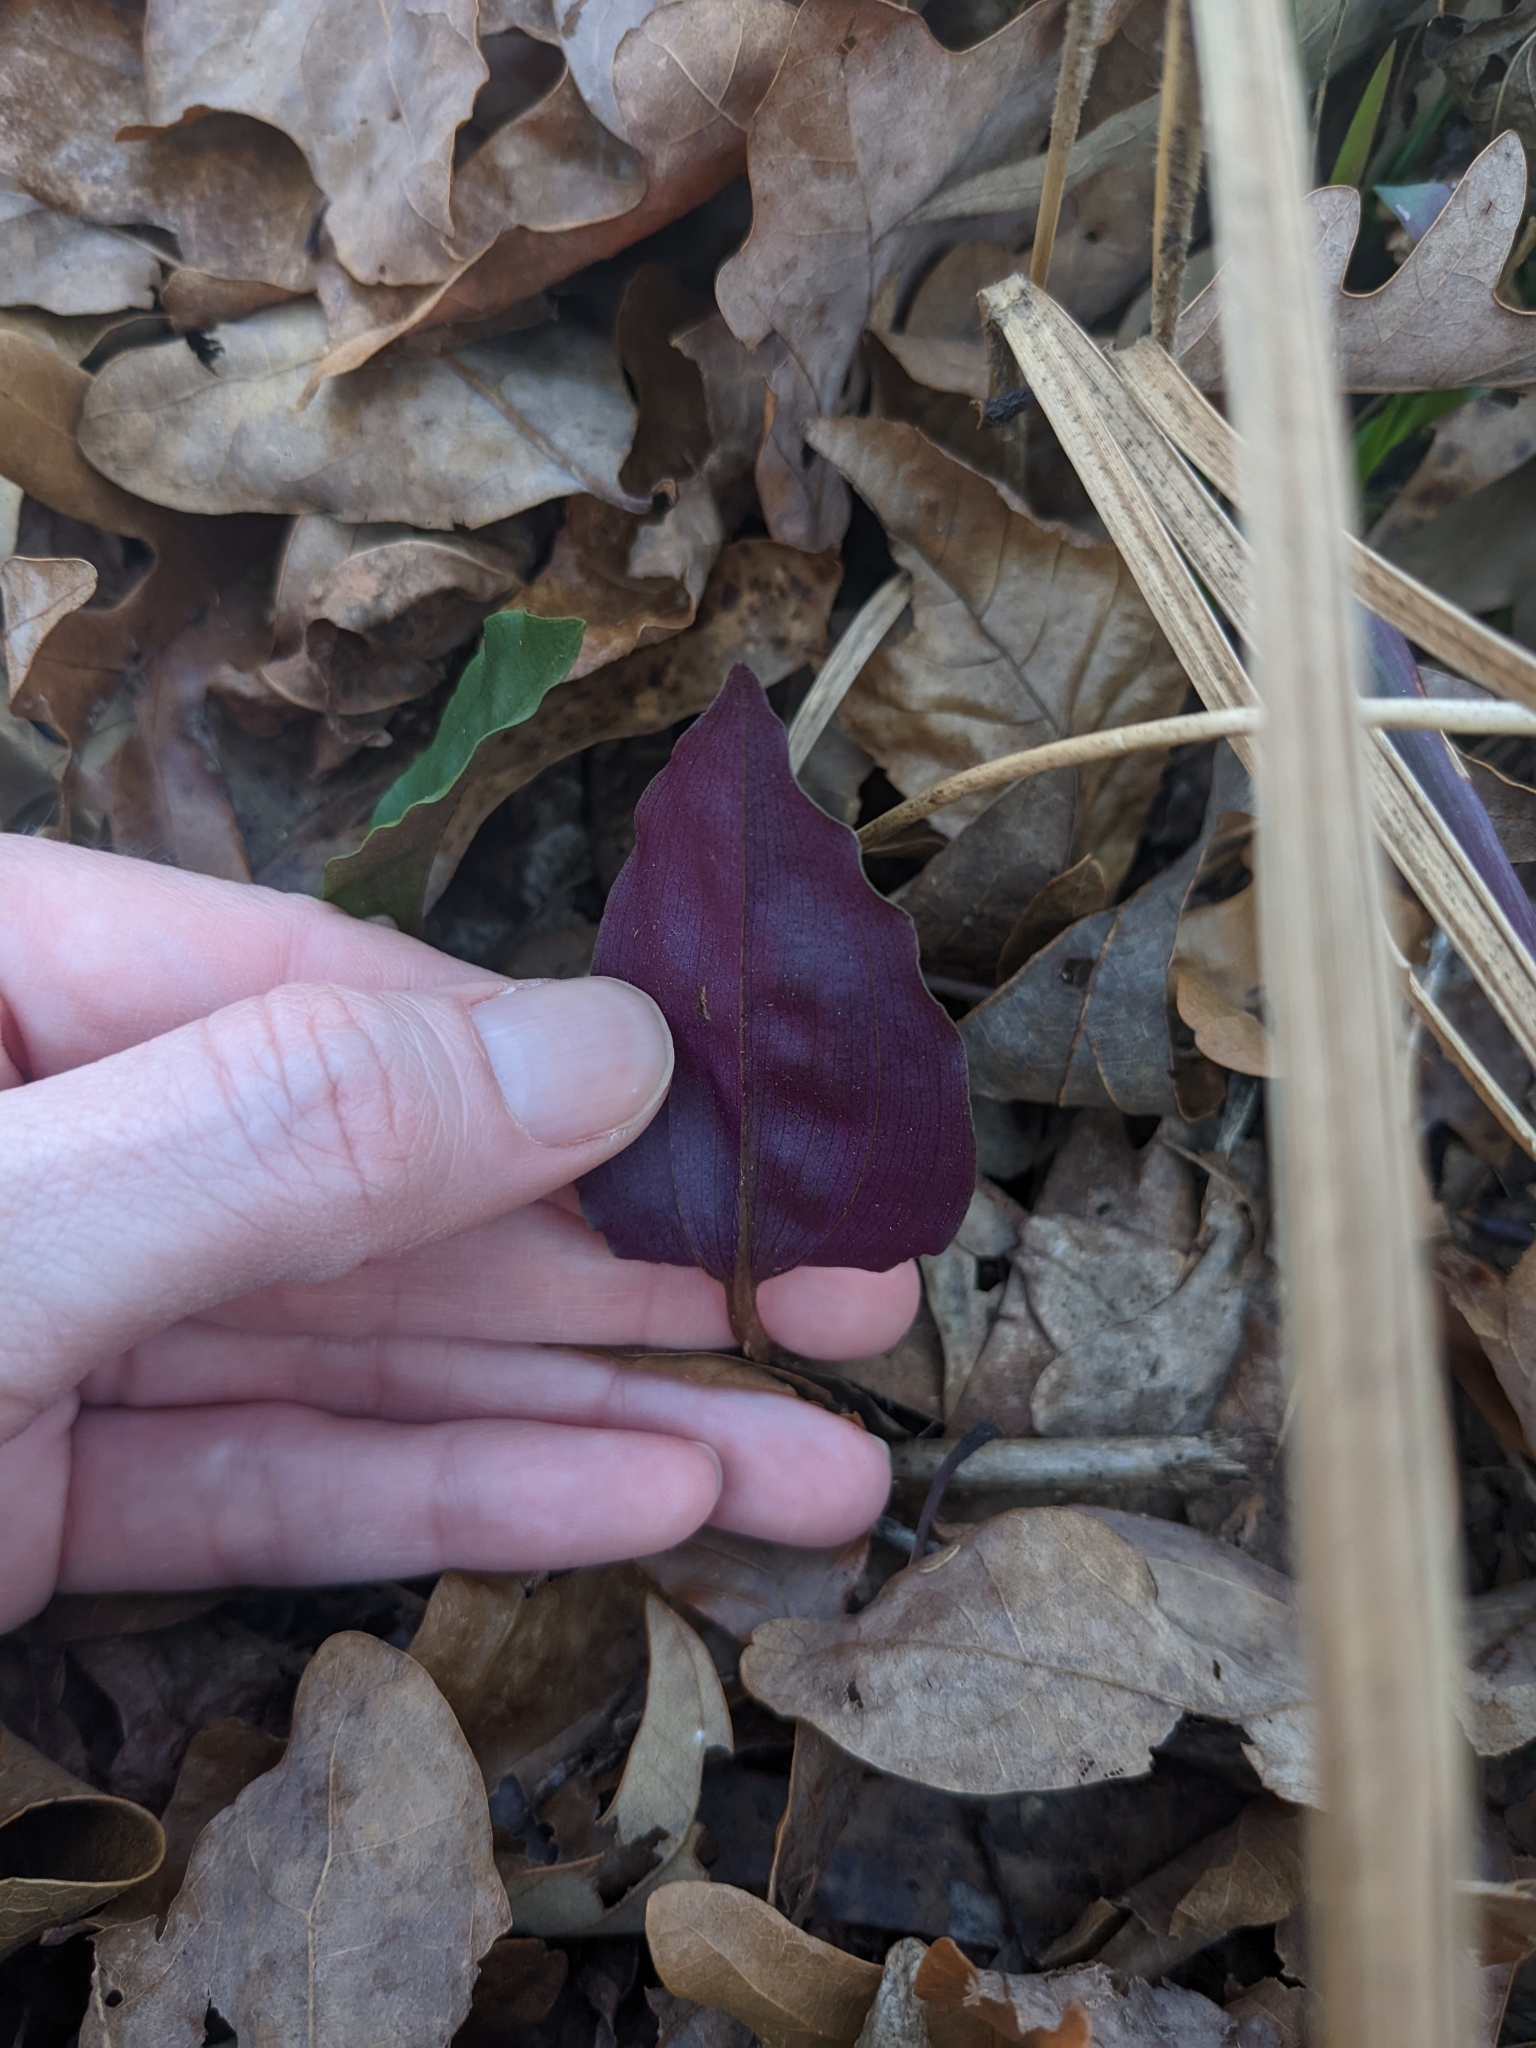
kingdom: Plantae
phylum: Tracheophyta
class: Liliopsida
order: Asparagales
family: Orchidaceae
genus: Tipularia
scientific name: Tipularia discolor
